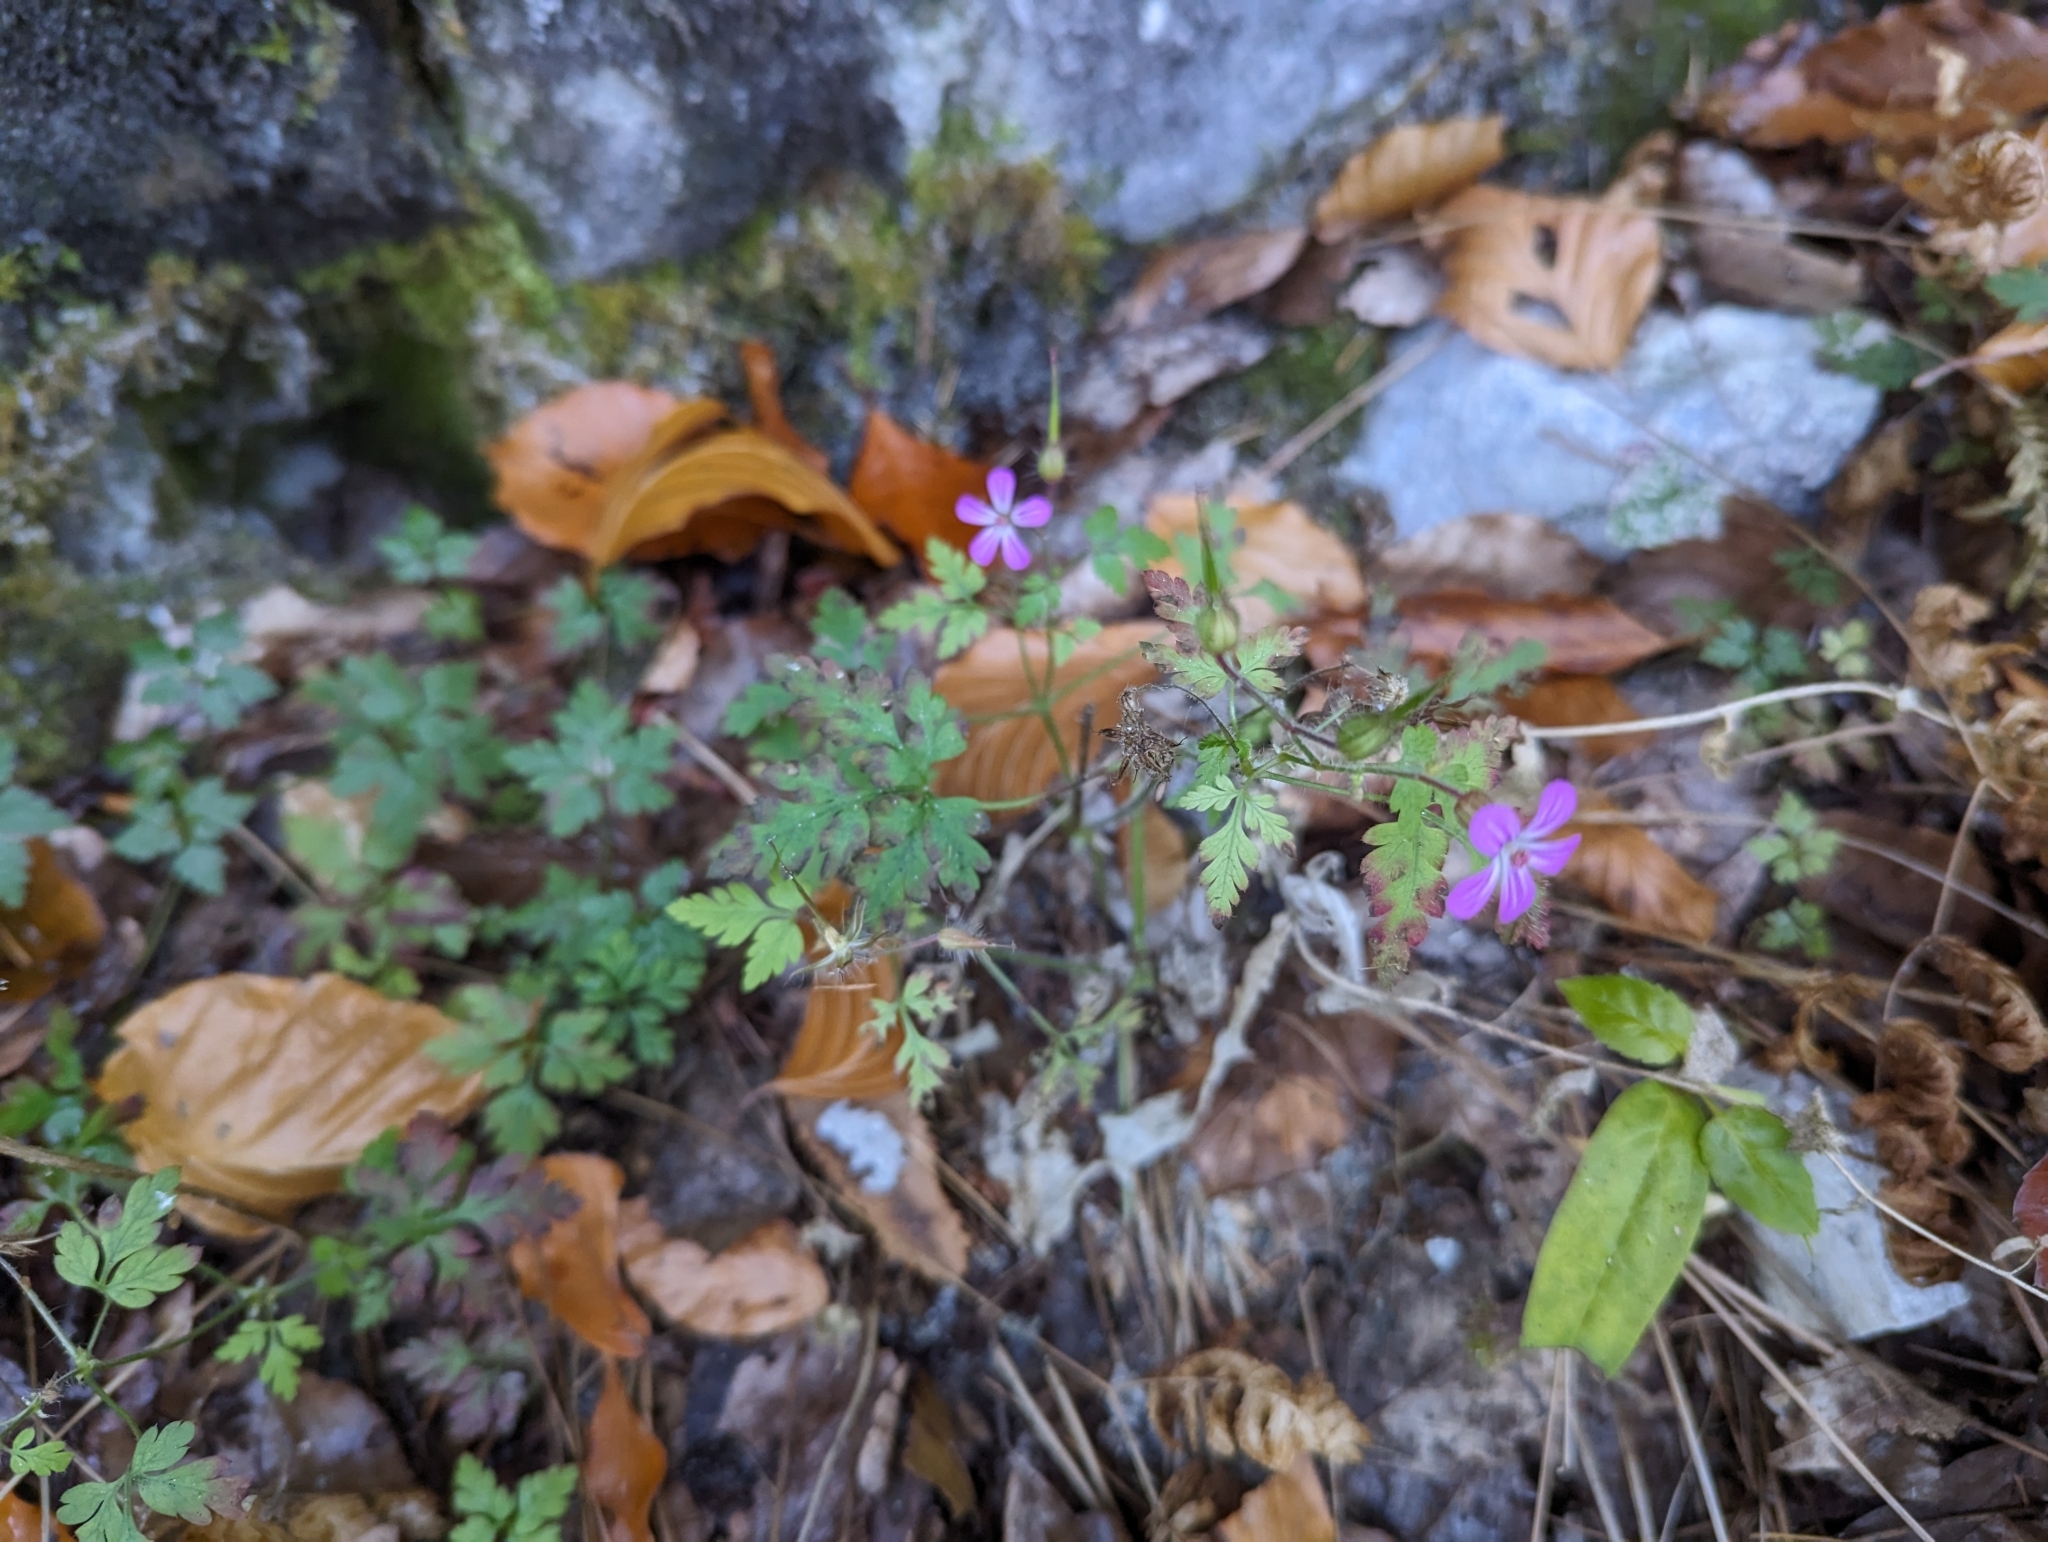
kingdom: Plantae
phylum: Tracheophyta
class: Magnoliopsida
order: Geraniales
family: Geraniaceae
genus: Geranium
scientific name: Geranium robertianum
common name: Herb-robert
